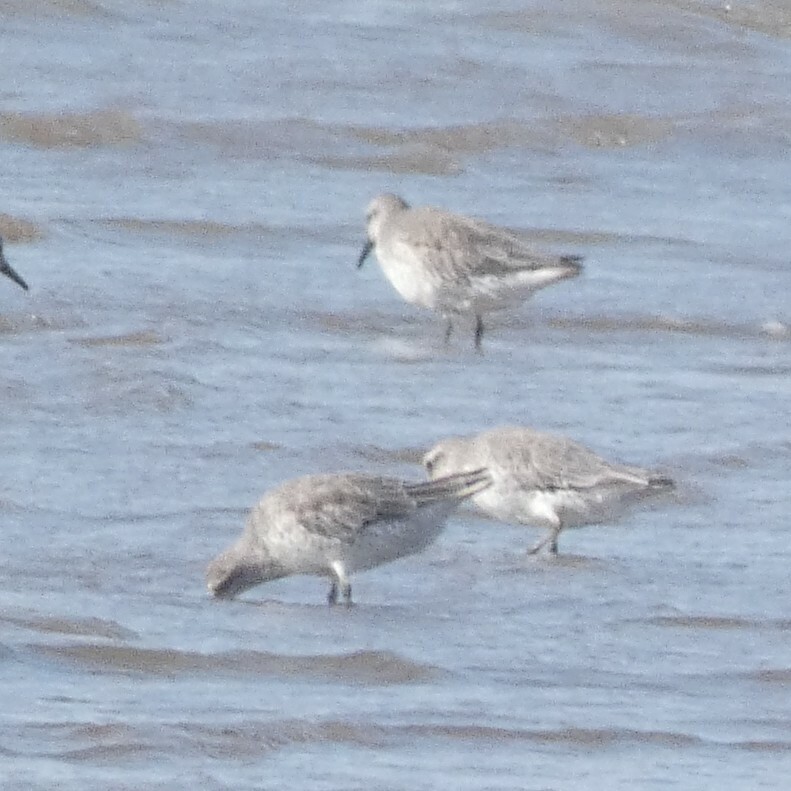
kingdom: Animalia
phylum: Chordata
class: Aves
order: Charadriiformes
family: Scolopacidae
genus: Calidris
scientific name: Calidris canutus
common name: Red knot
